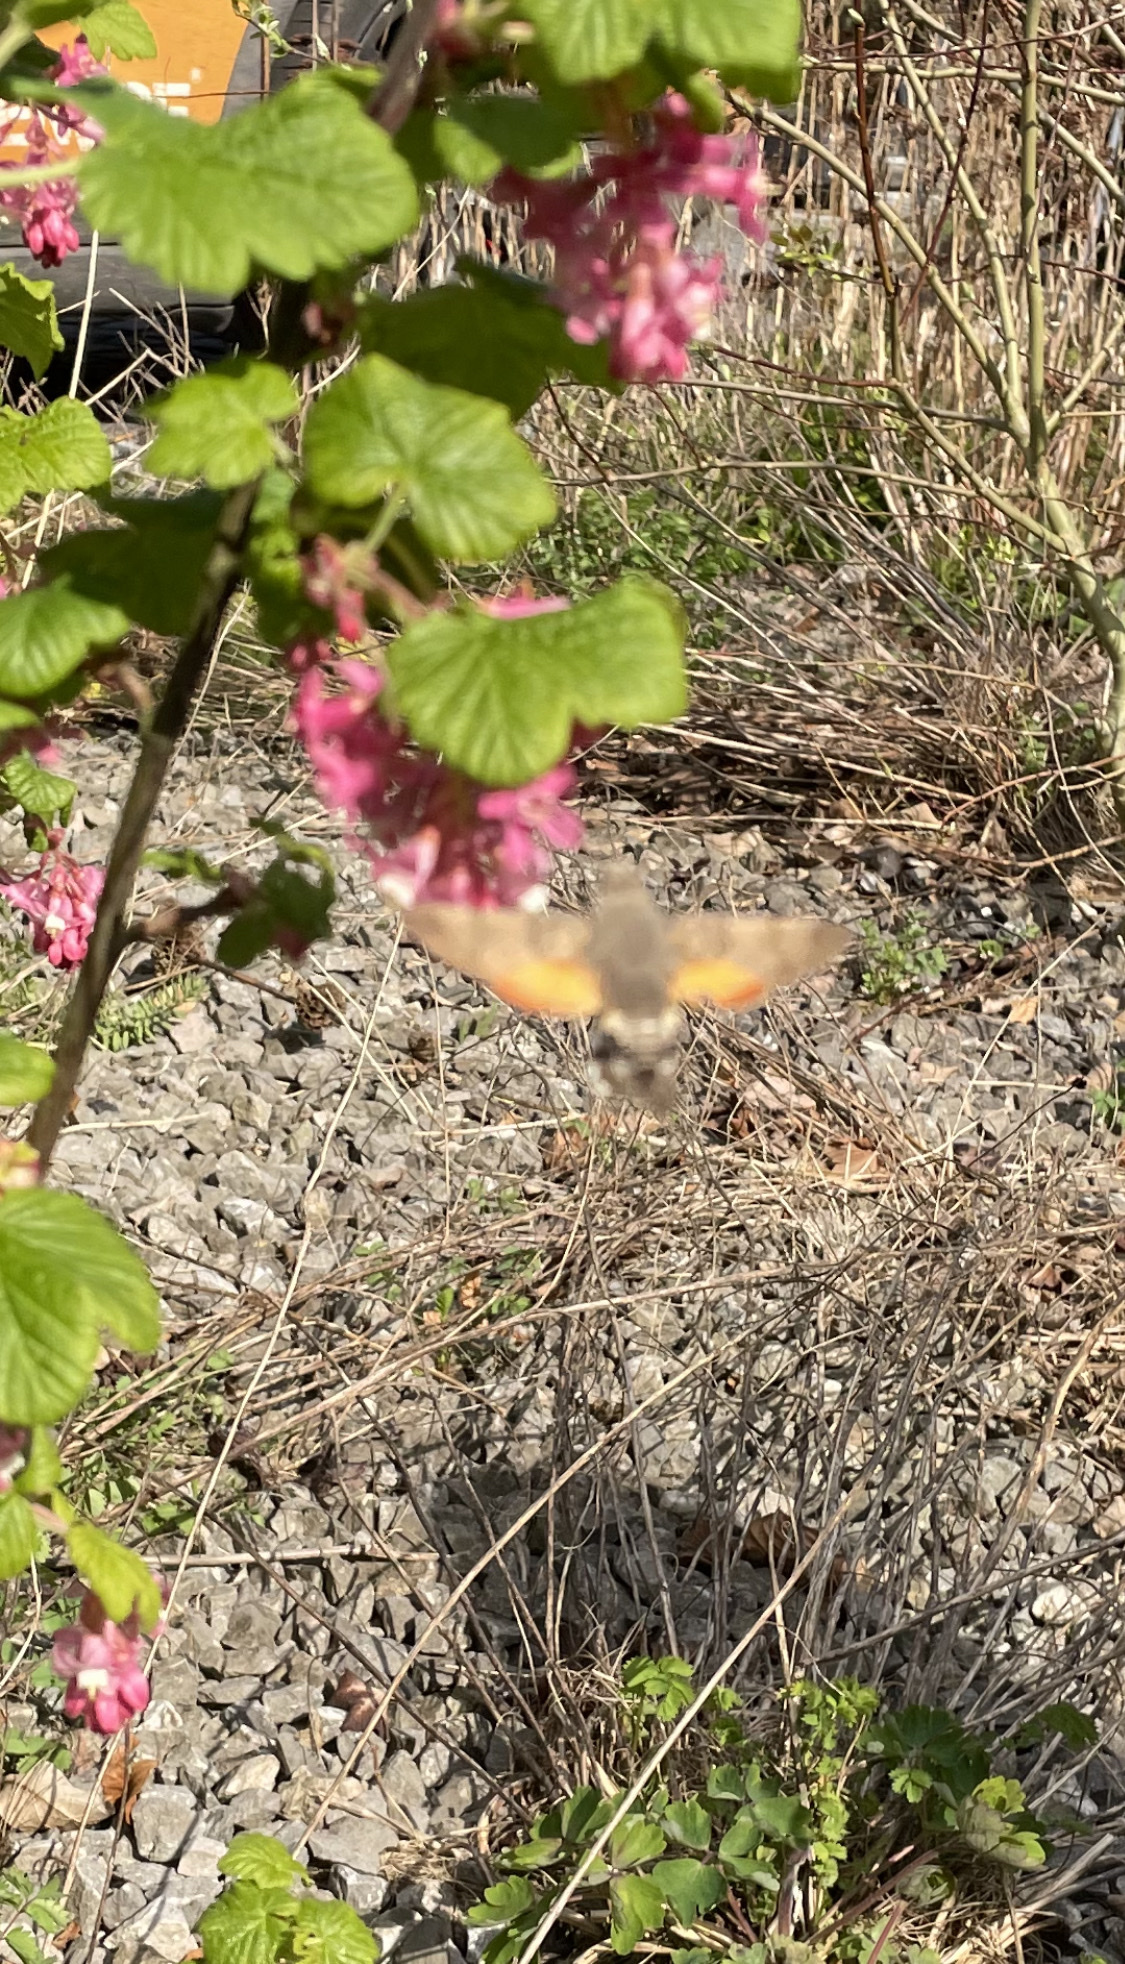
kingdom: Animalia
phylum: Arthropoda
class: Insecta
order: Lepidoptera
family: Sphingidae
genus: Macroglossum
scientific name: Macroglossum stellatarum
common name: Humming-bird hawk-moth
